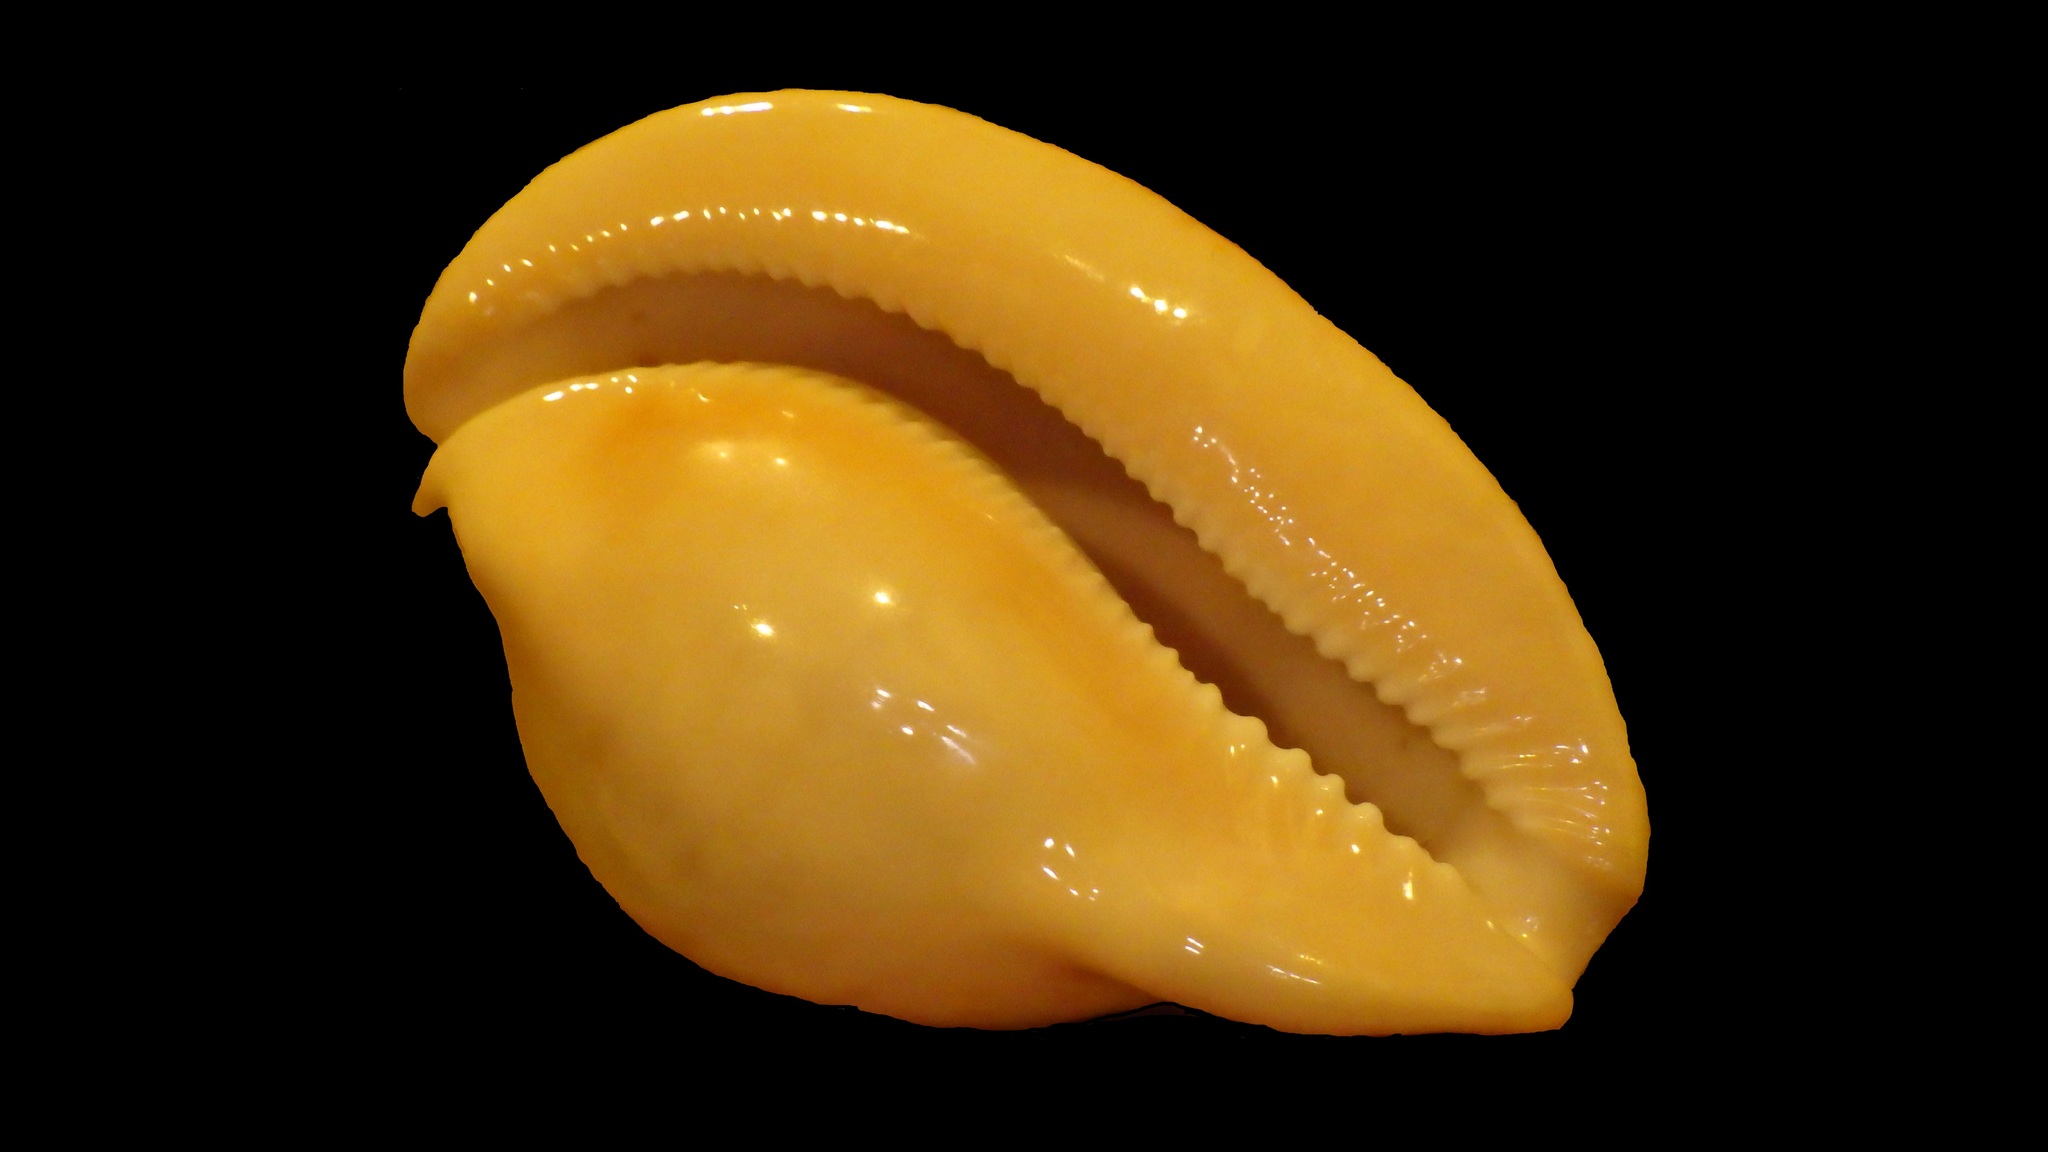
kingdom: Animalia
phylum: Mollusca
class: Gastropoda
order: Littorinimorpha
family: Cypraeidae
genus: Umbilia
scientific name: Umbilia armeniaca
